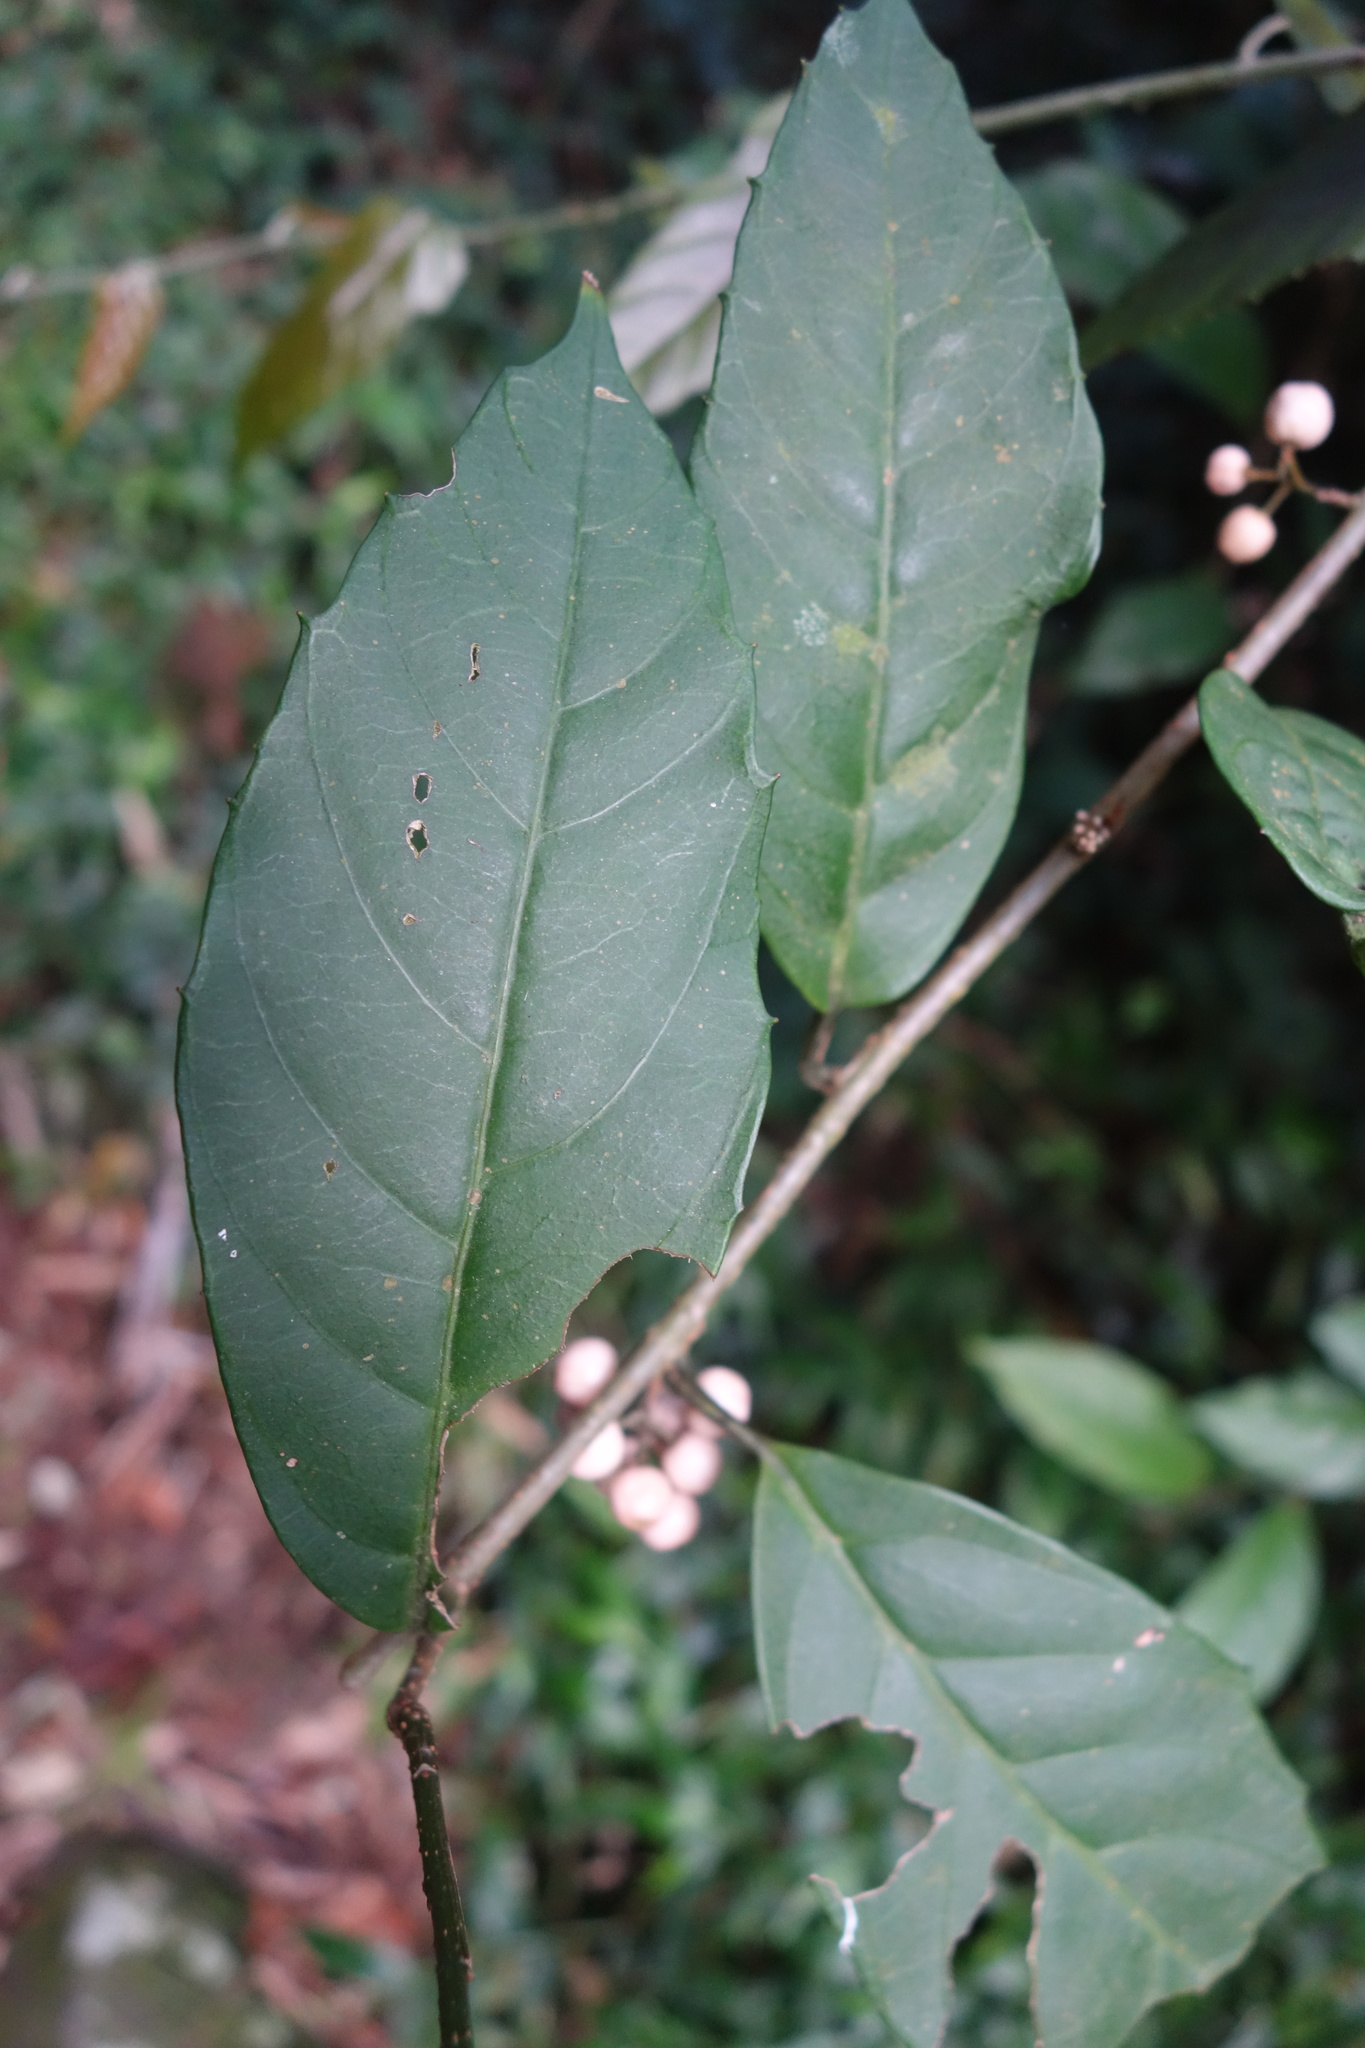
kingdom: Plantae
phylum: Tracheophyta
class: Magnoliopsida
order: Ericales
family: Primulaceae
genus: Maesa
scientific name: Maesa japonica
